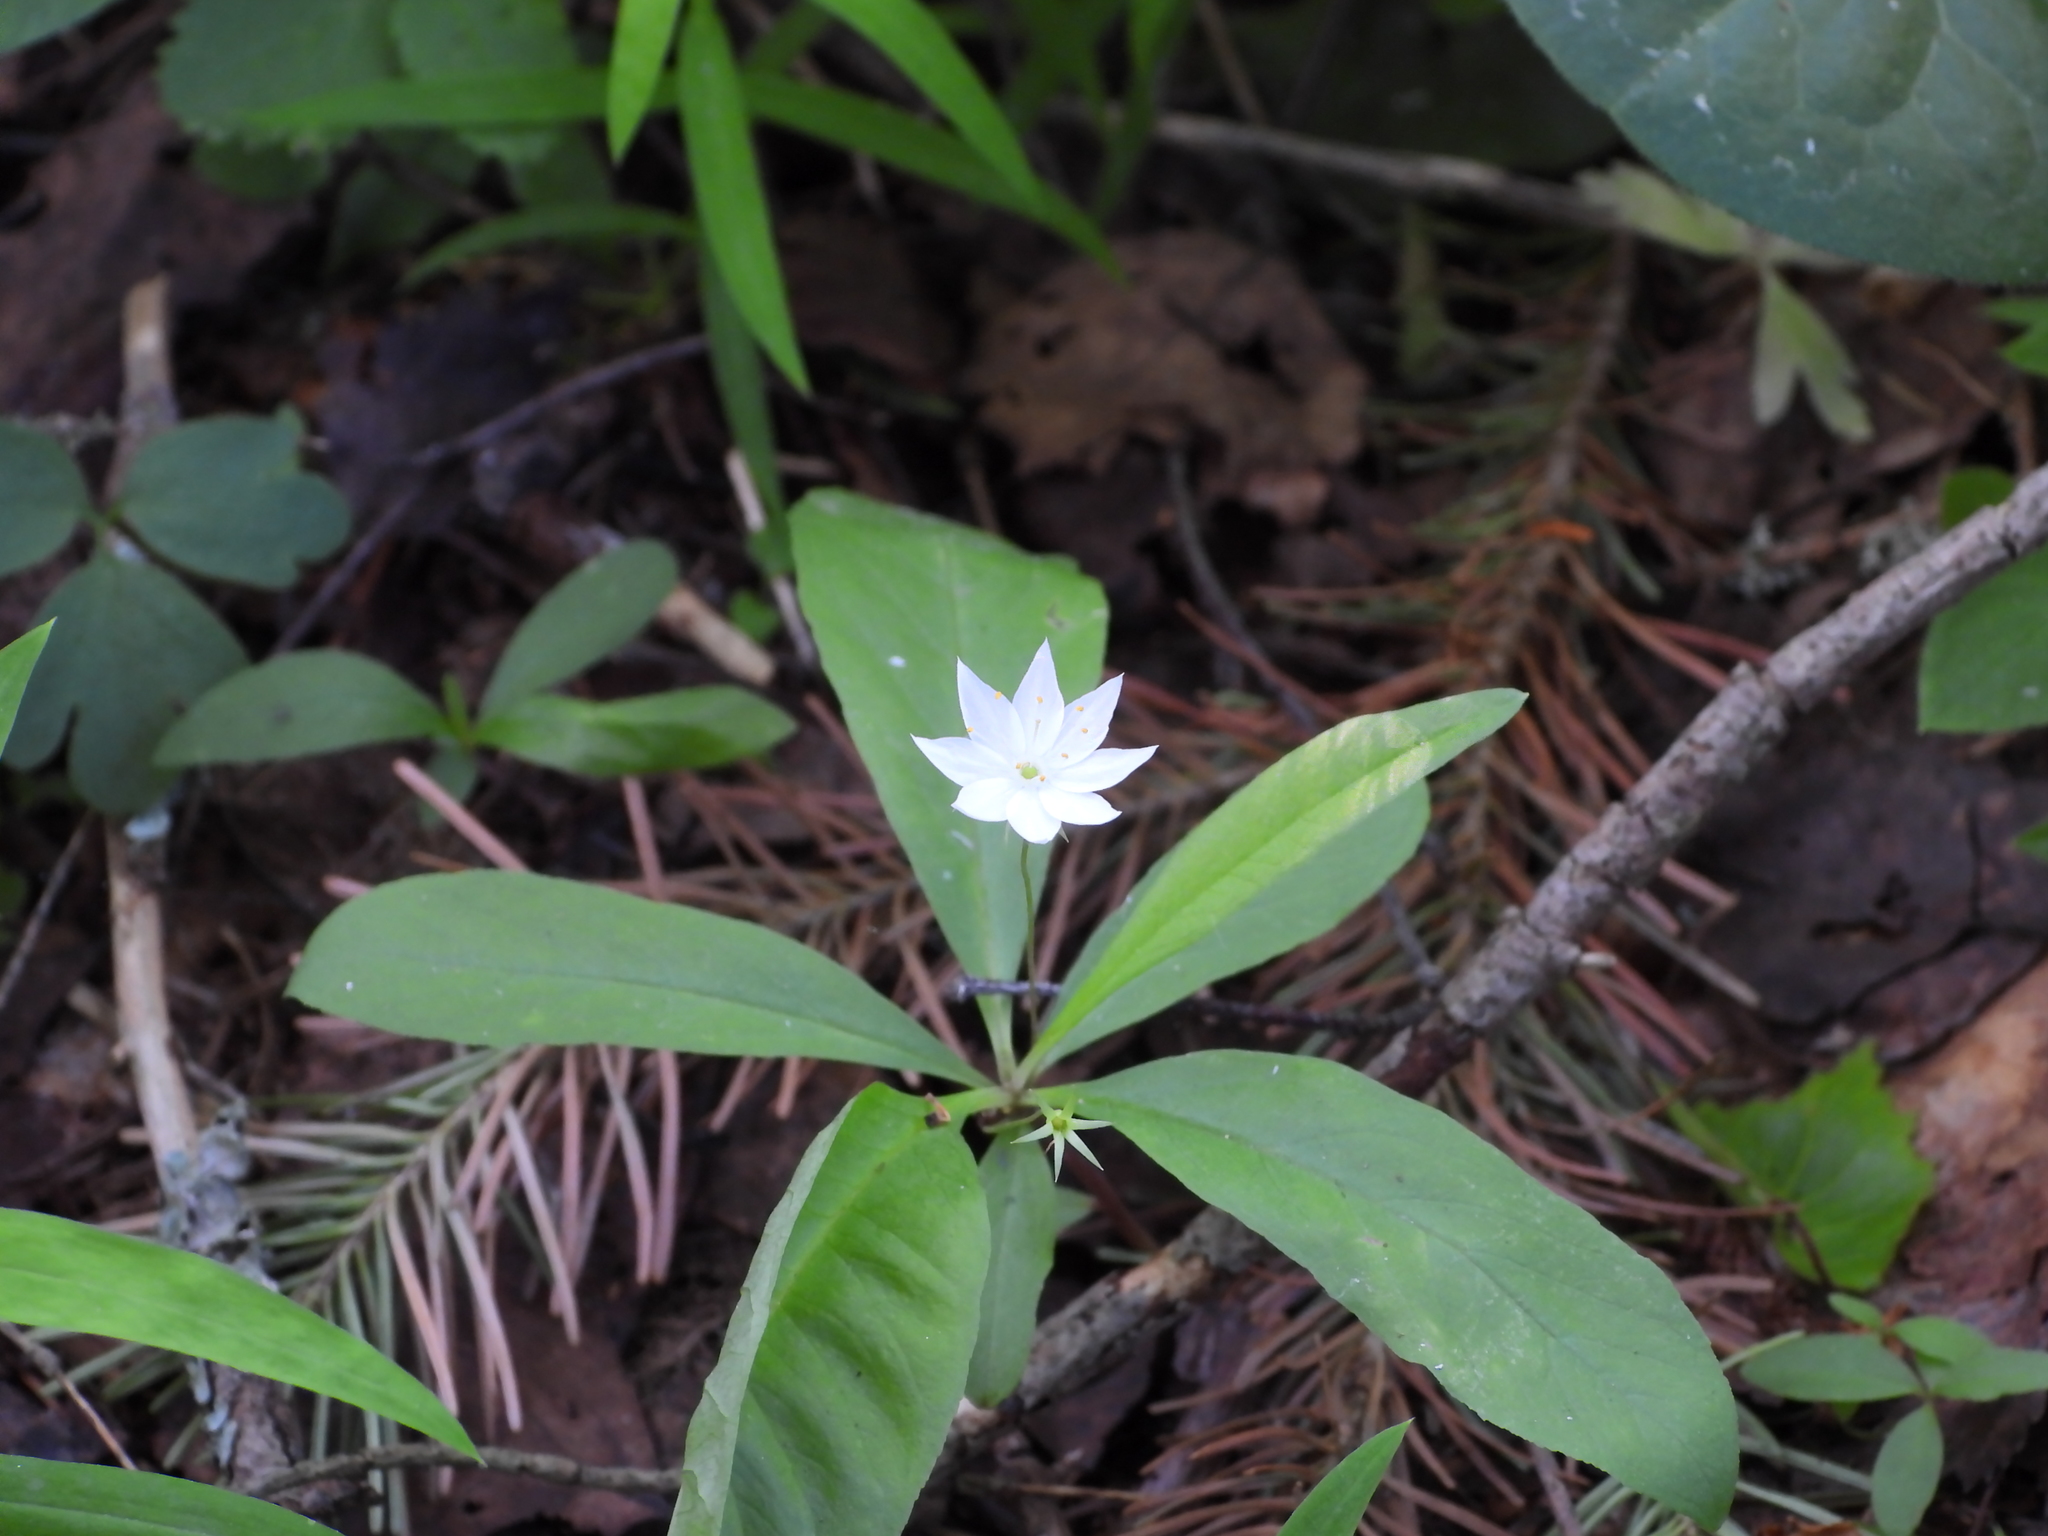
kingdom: Plantae
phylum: Tracheophyta
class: Magnoliopsida
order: Ericales
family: Primulaceae
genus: Lysimachia
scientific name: Lysimachia europaea
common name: Arctic starflower
